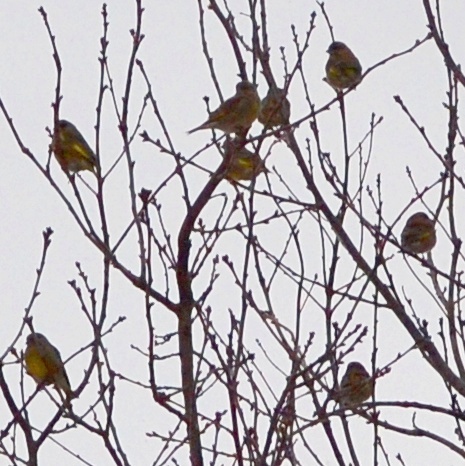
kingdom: Plantae
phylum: Tracheophyta
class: Liliopsida
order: Poales
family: Poaceae
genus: Chloris
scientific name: Chloris chloris
